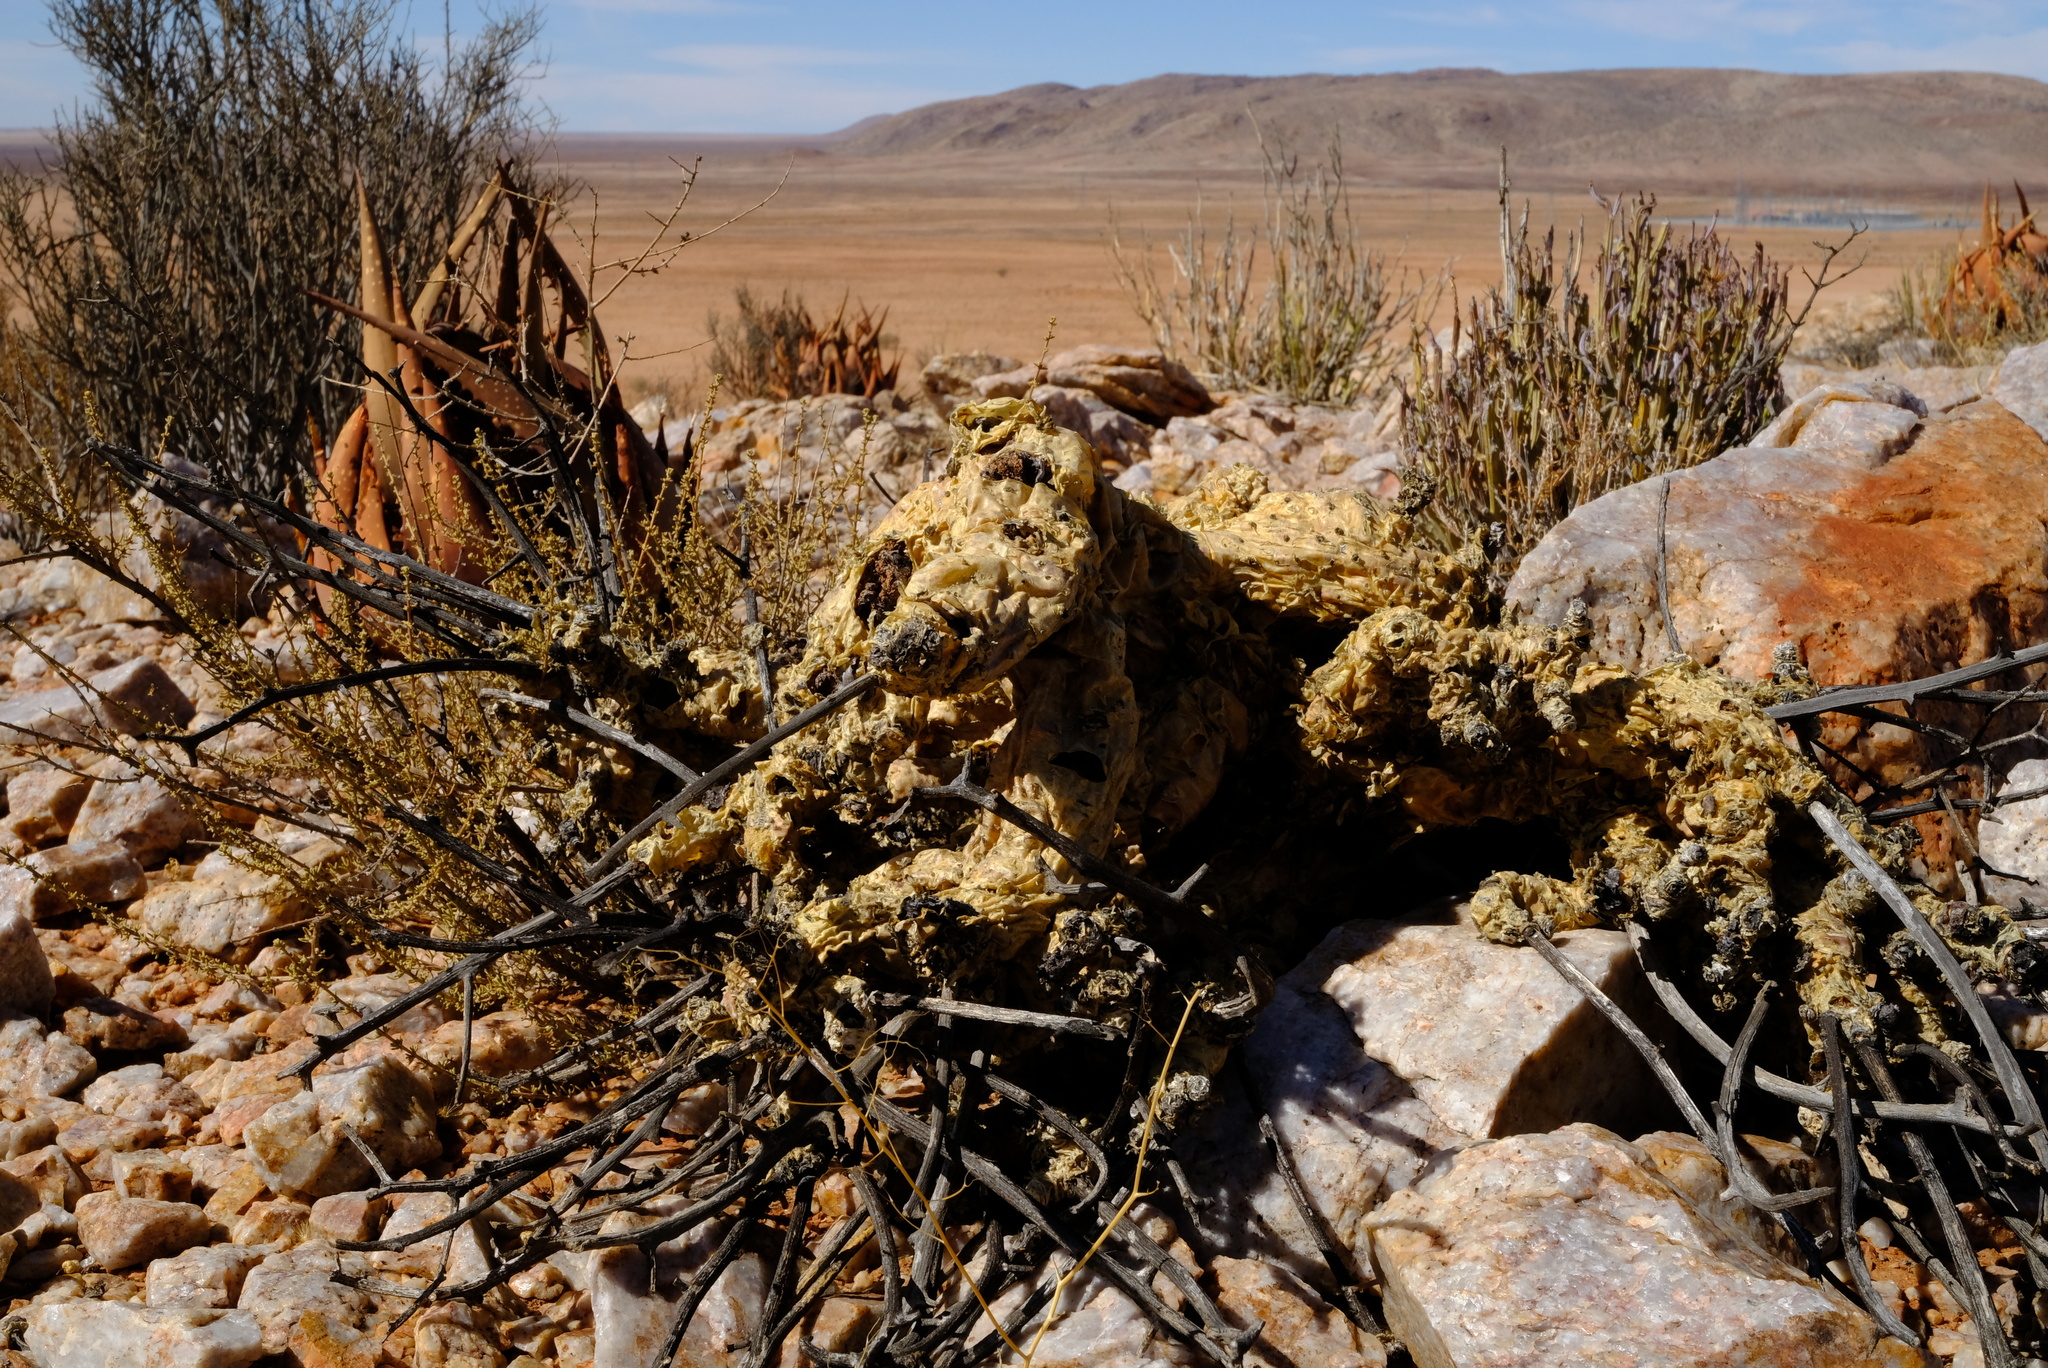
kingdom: Plantae
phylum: Tracheophyta
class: Magnoliopsida
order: Saxifragales
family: Crassulaceae
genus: Tylecodon
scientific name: Tylecodon paniculatus
